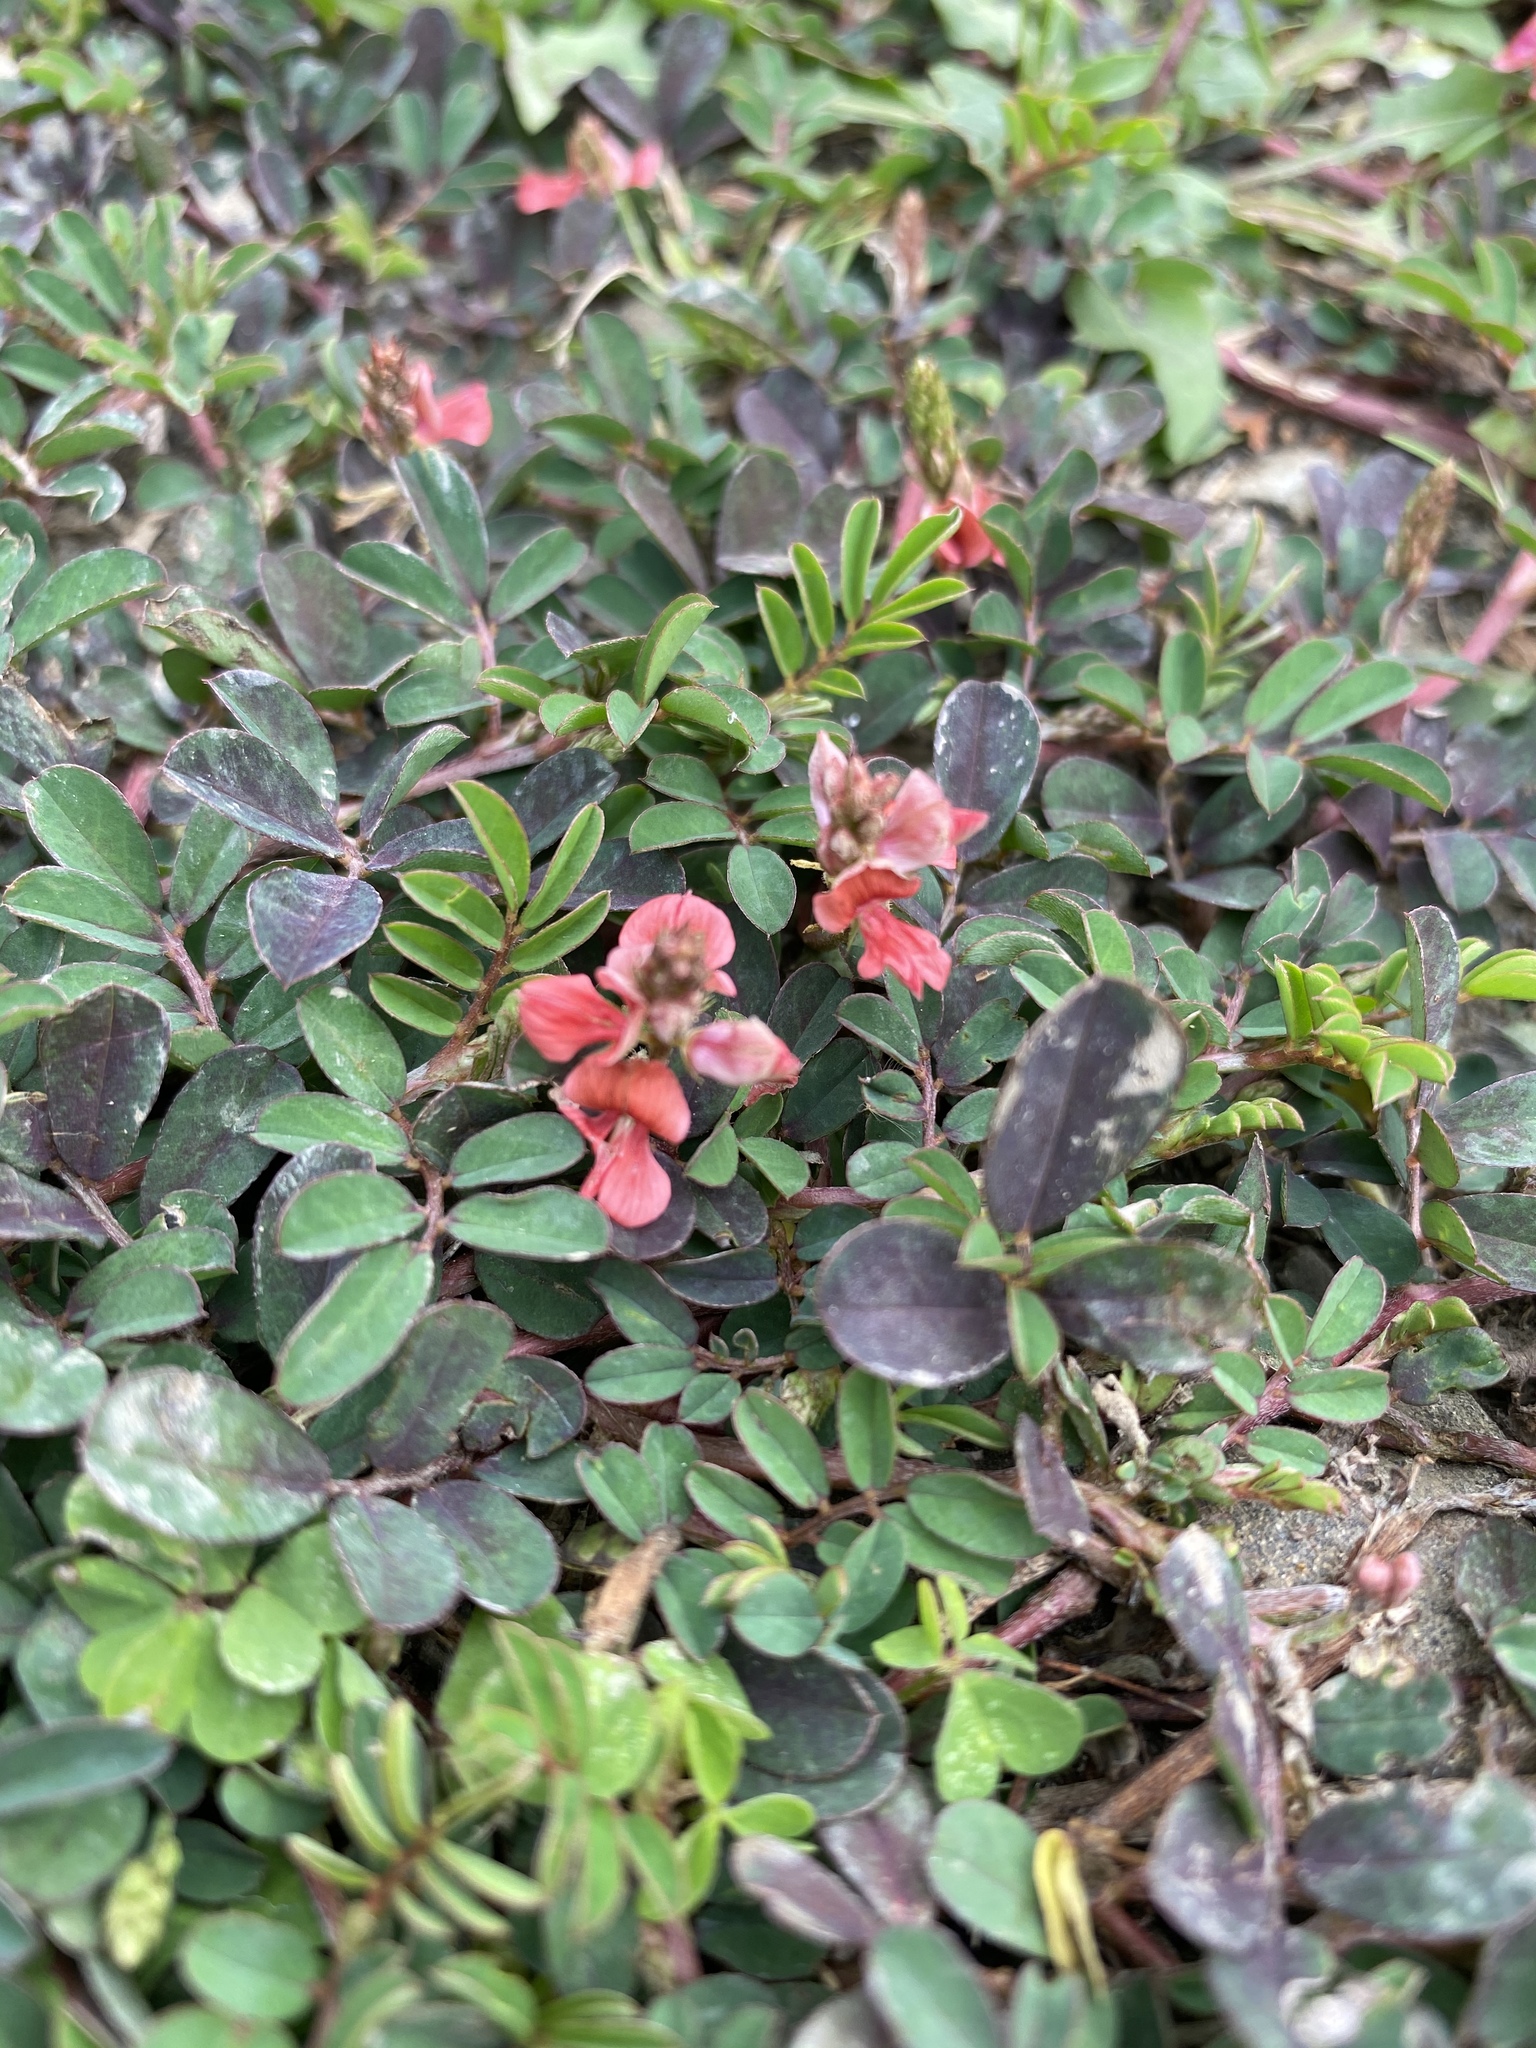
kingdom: Plantae
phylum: Tracheophyta
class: Magnoliopsida
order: Fabales
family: Fabaceae
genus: Indigofera
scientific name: Indigofera spicata
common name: Creeping indigo
